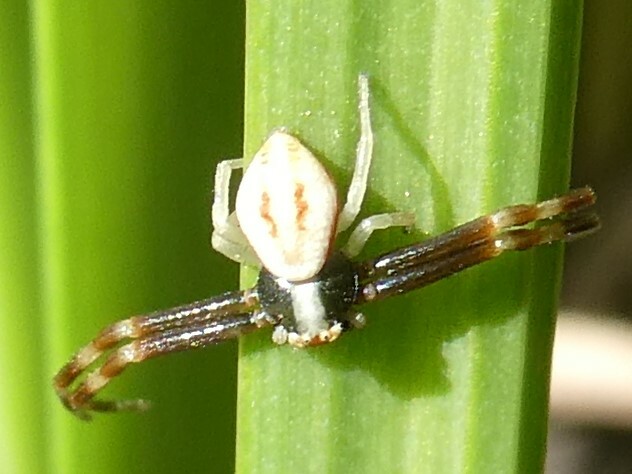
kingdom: Animalia
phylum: Arthropoda
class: Arachnida
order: Araneae
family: Thomisidae
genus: Misumena
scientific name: Misumena vatia
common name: Goldenrod crab spider
